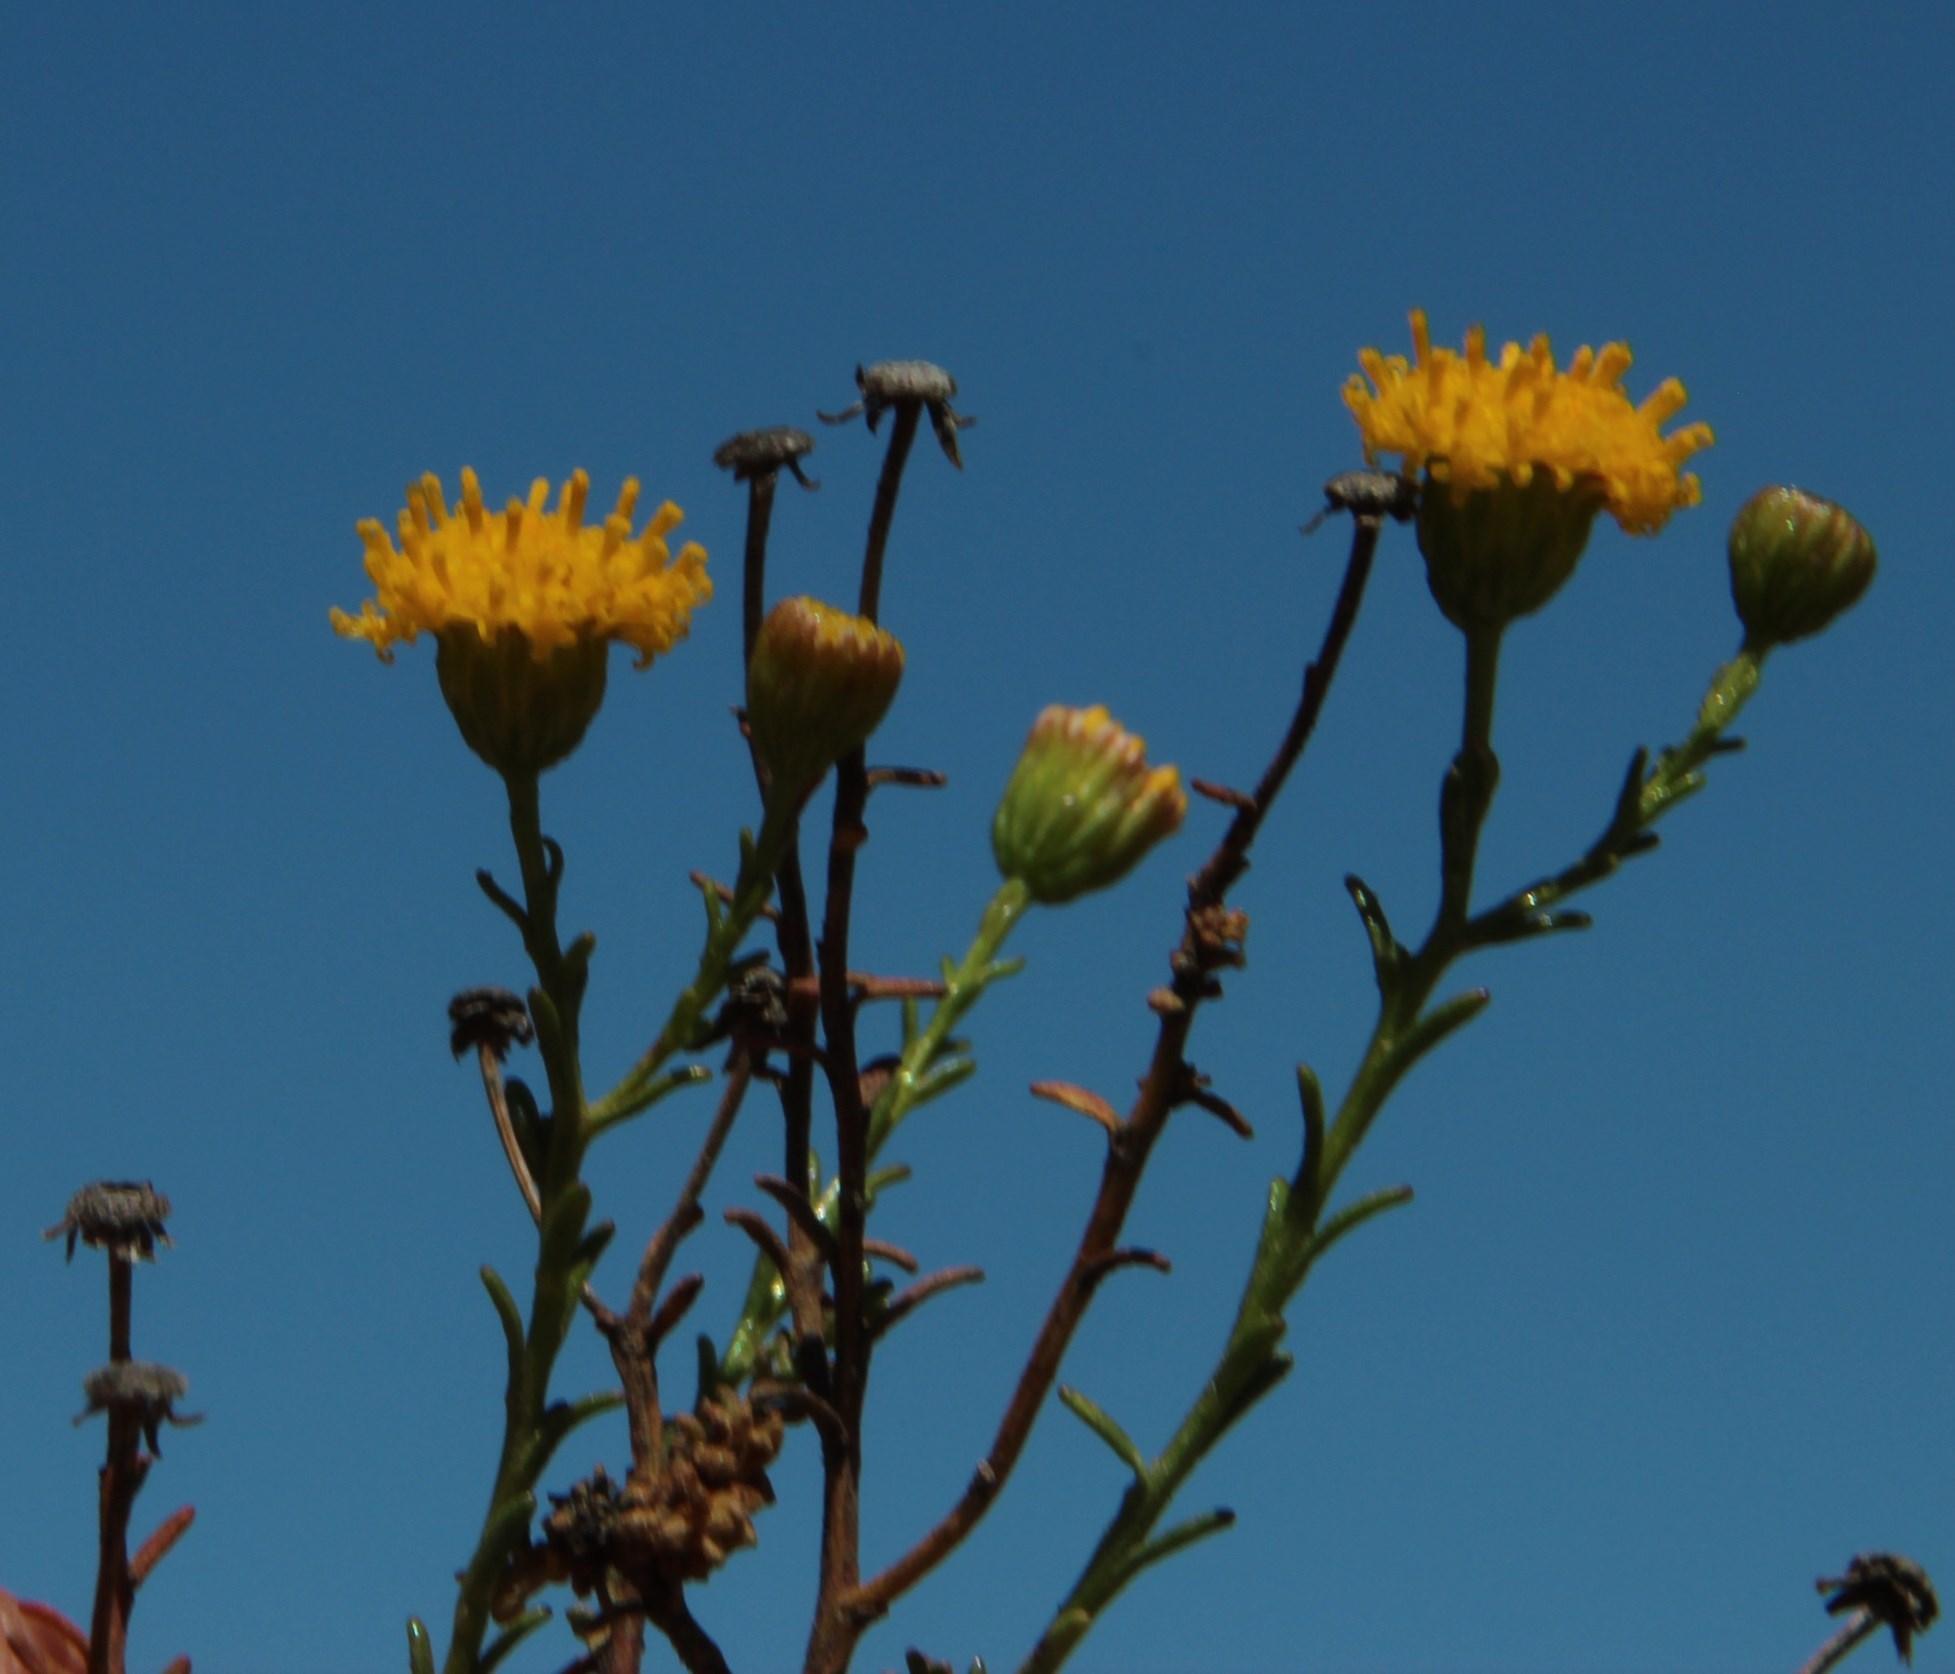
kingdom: Plantae
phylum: Tracheophyta
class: Magnoliopsida
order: Asterales
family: Asteraceae
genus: Chrysocoma
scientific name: Chrysocoma ciliata
